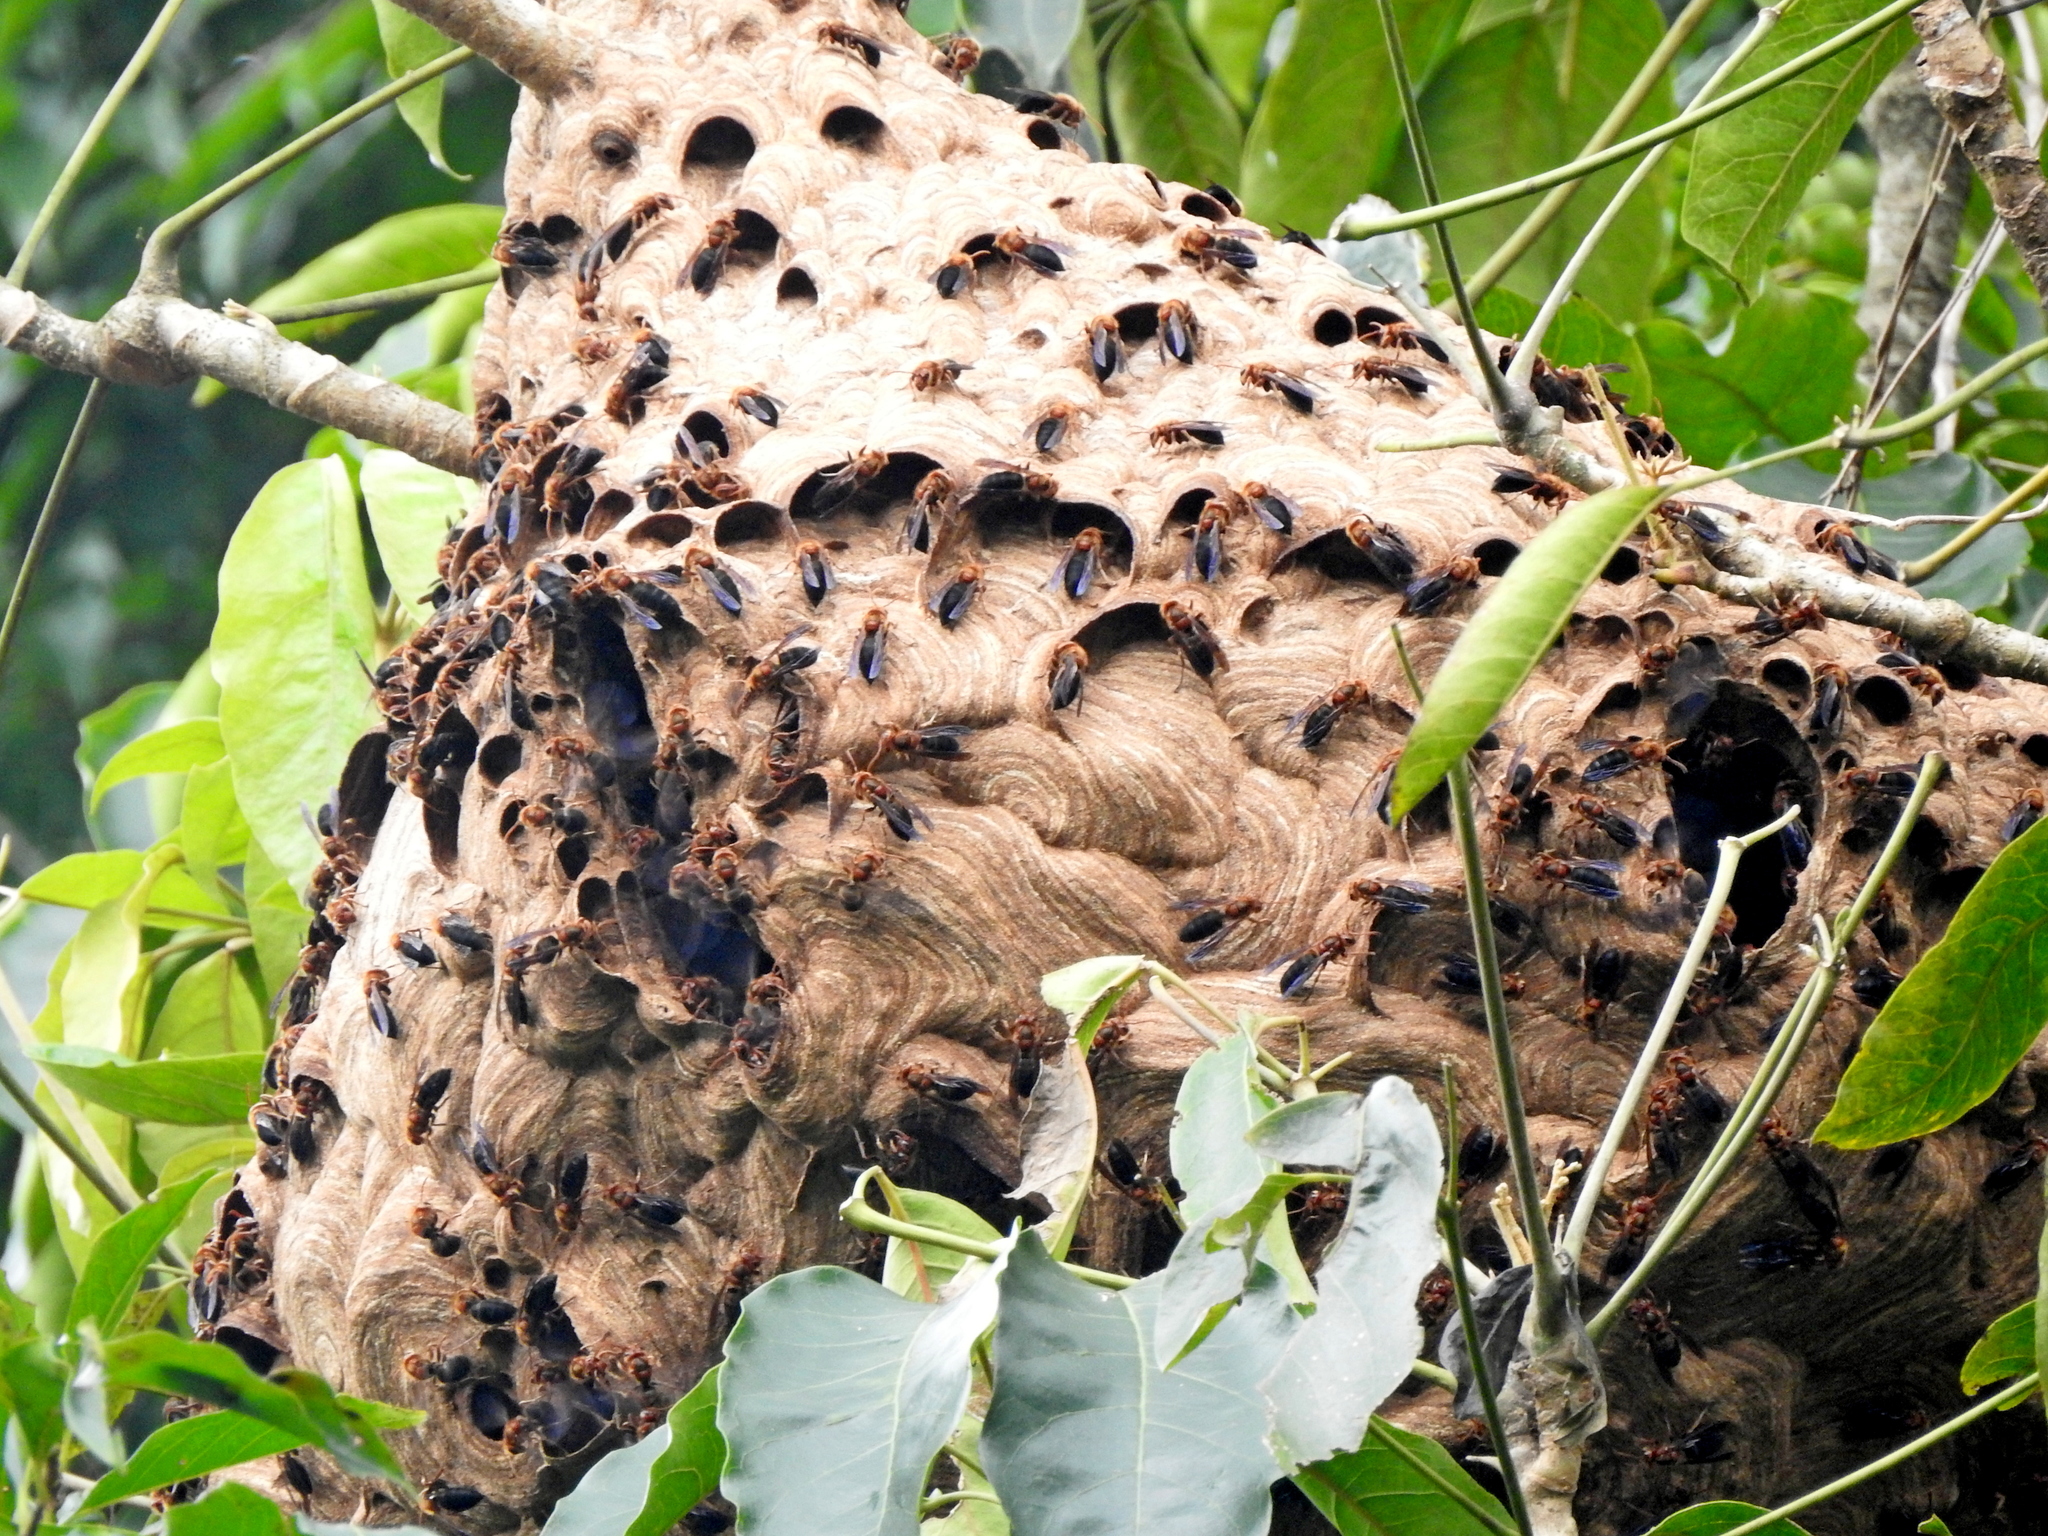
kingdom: Animalia
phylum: Arthropoda
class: Insecta
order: Hymenoptera
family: Vespidae
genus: Vespa
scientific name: Vespa basalis
